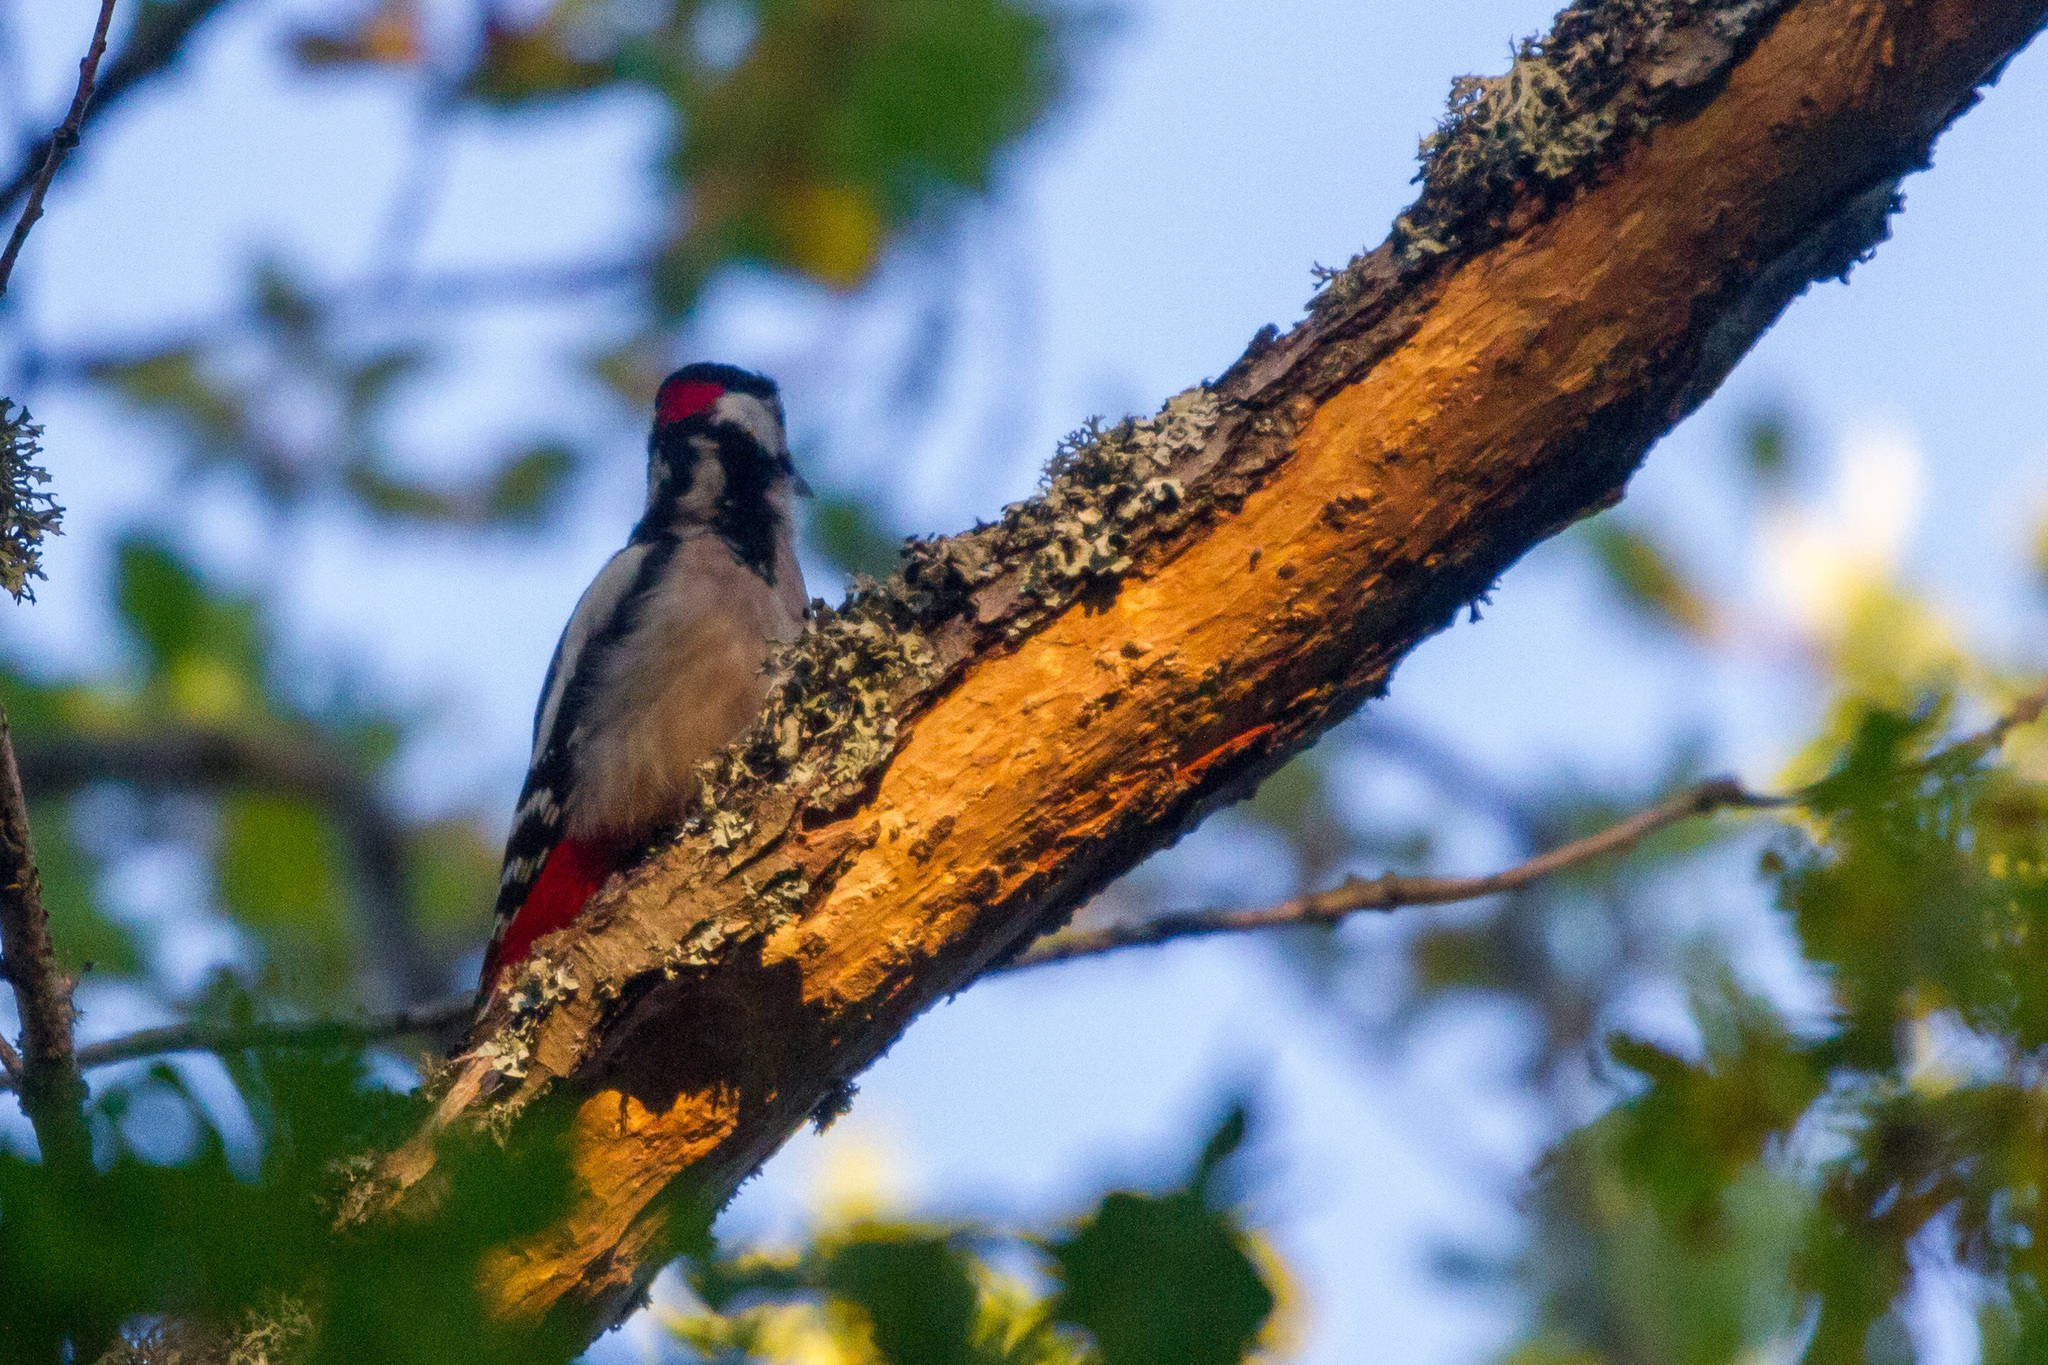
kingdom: Animalia
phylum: Chordata
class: Aves
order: Piciformes
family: Picidae
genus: Dendrocopos
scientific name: Dendrocopos major
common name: Great spotted woodpecker
